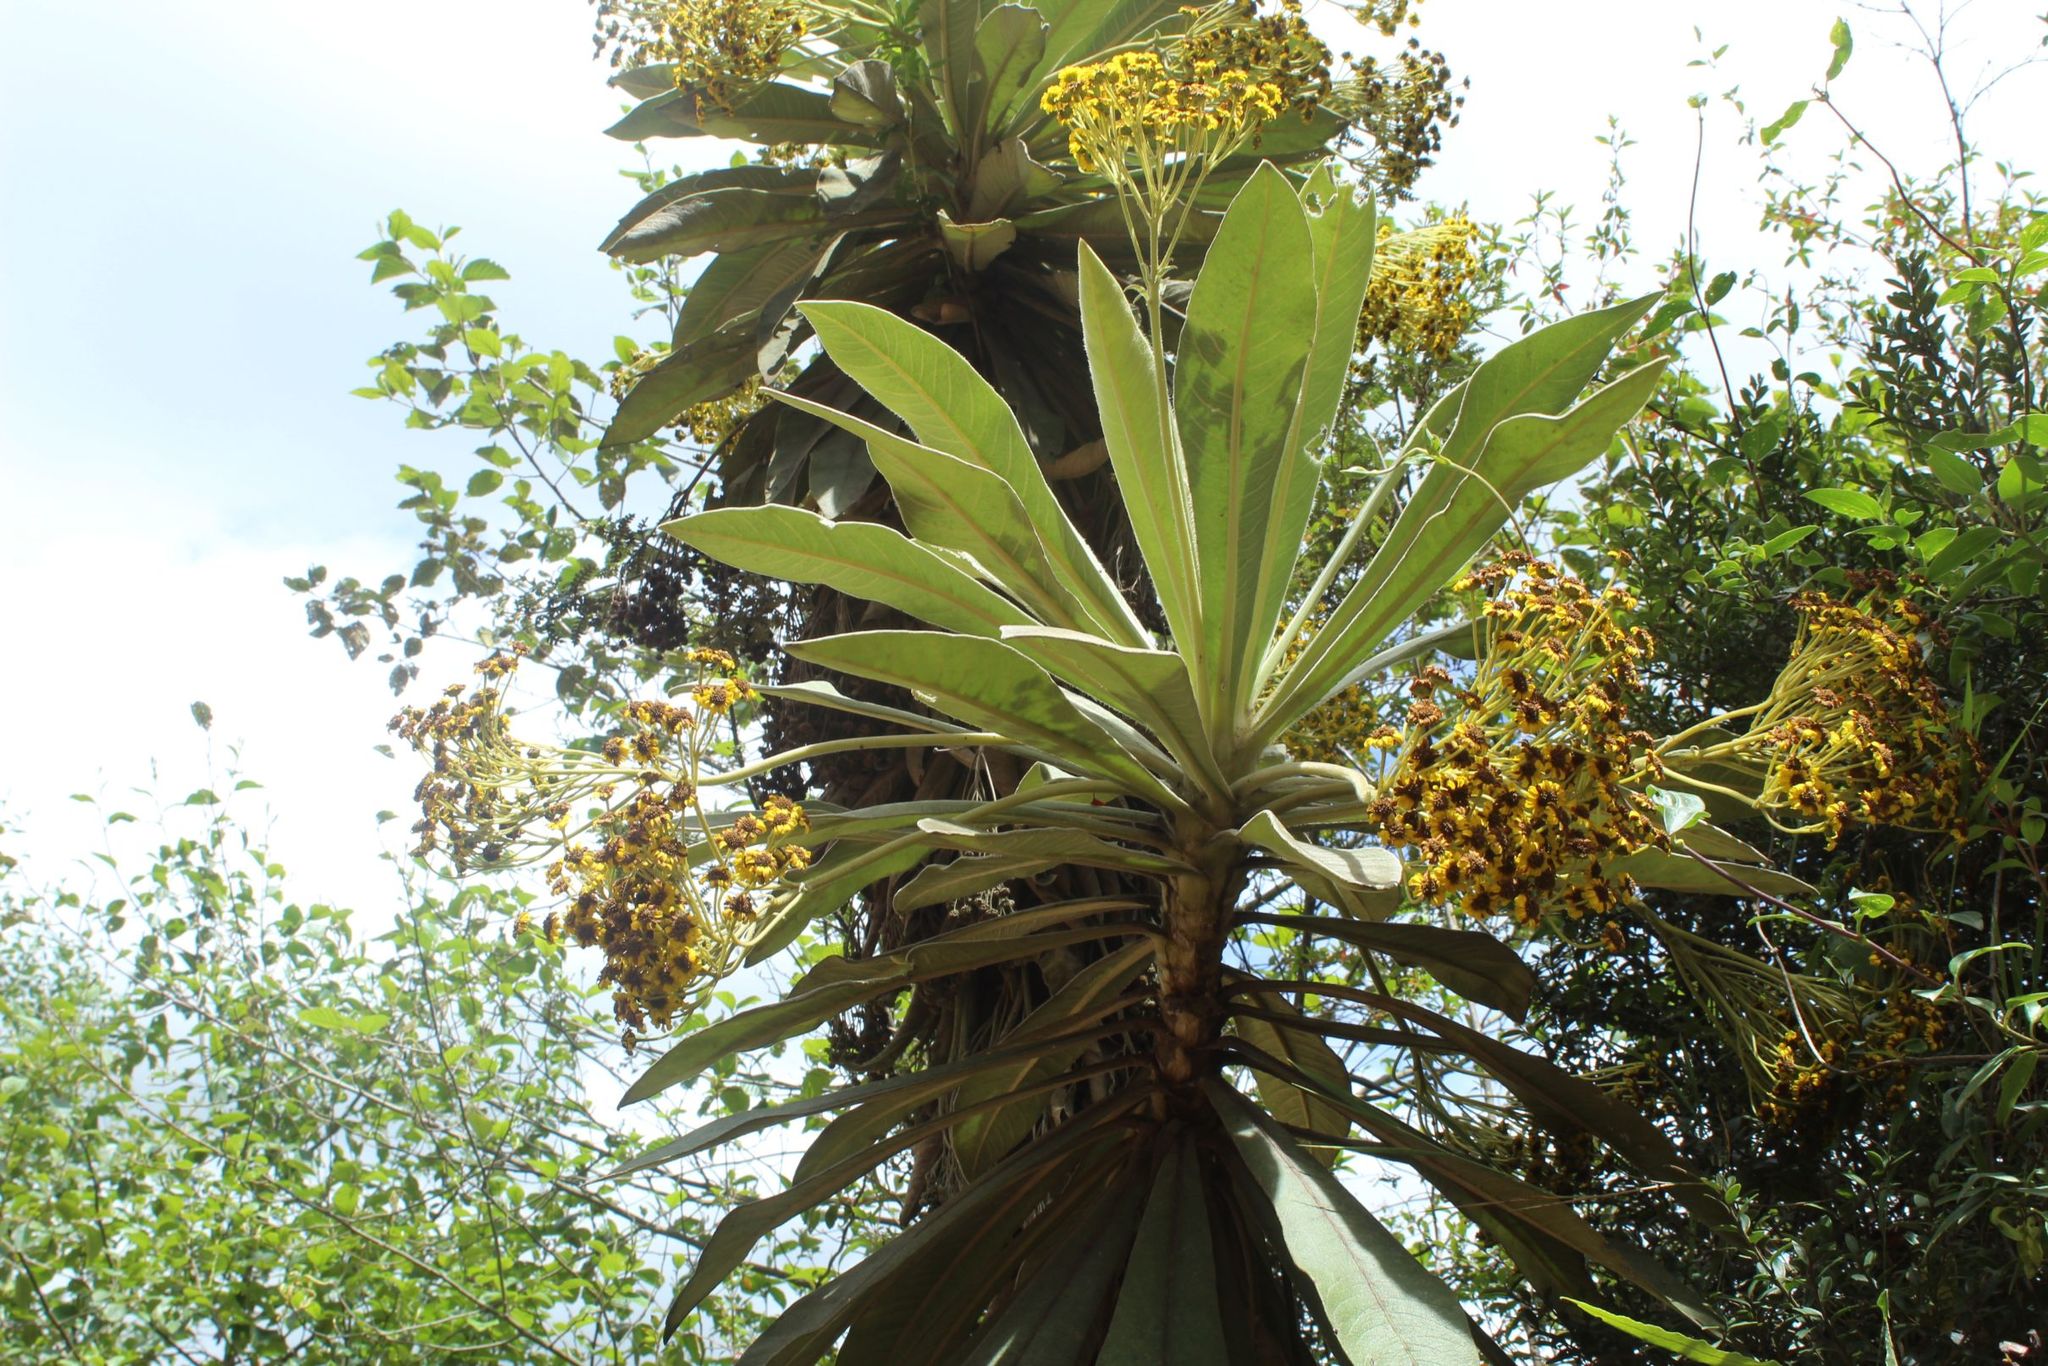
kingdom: Plantae
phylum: Tracheophyta
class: Magnoliopsida
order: Asterales
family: Asteraceae
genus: Espeletia
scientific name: Espeletia pleiochasia
